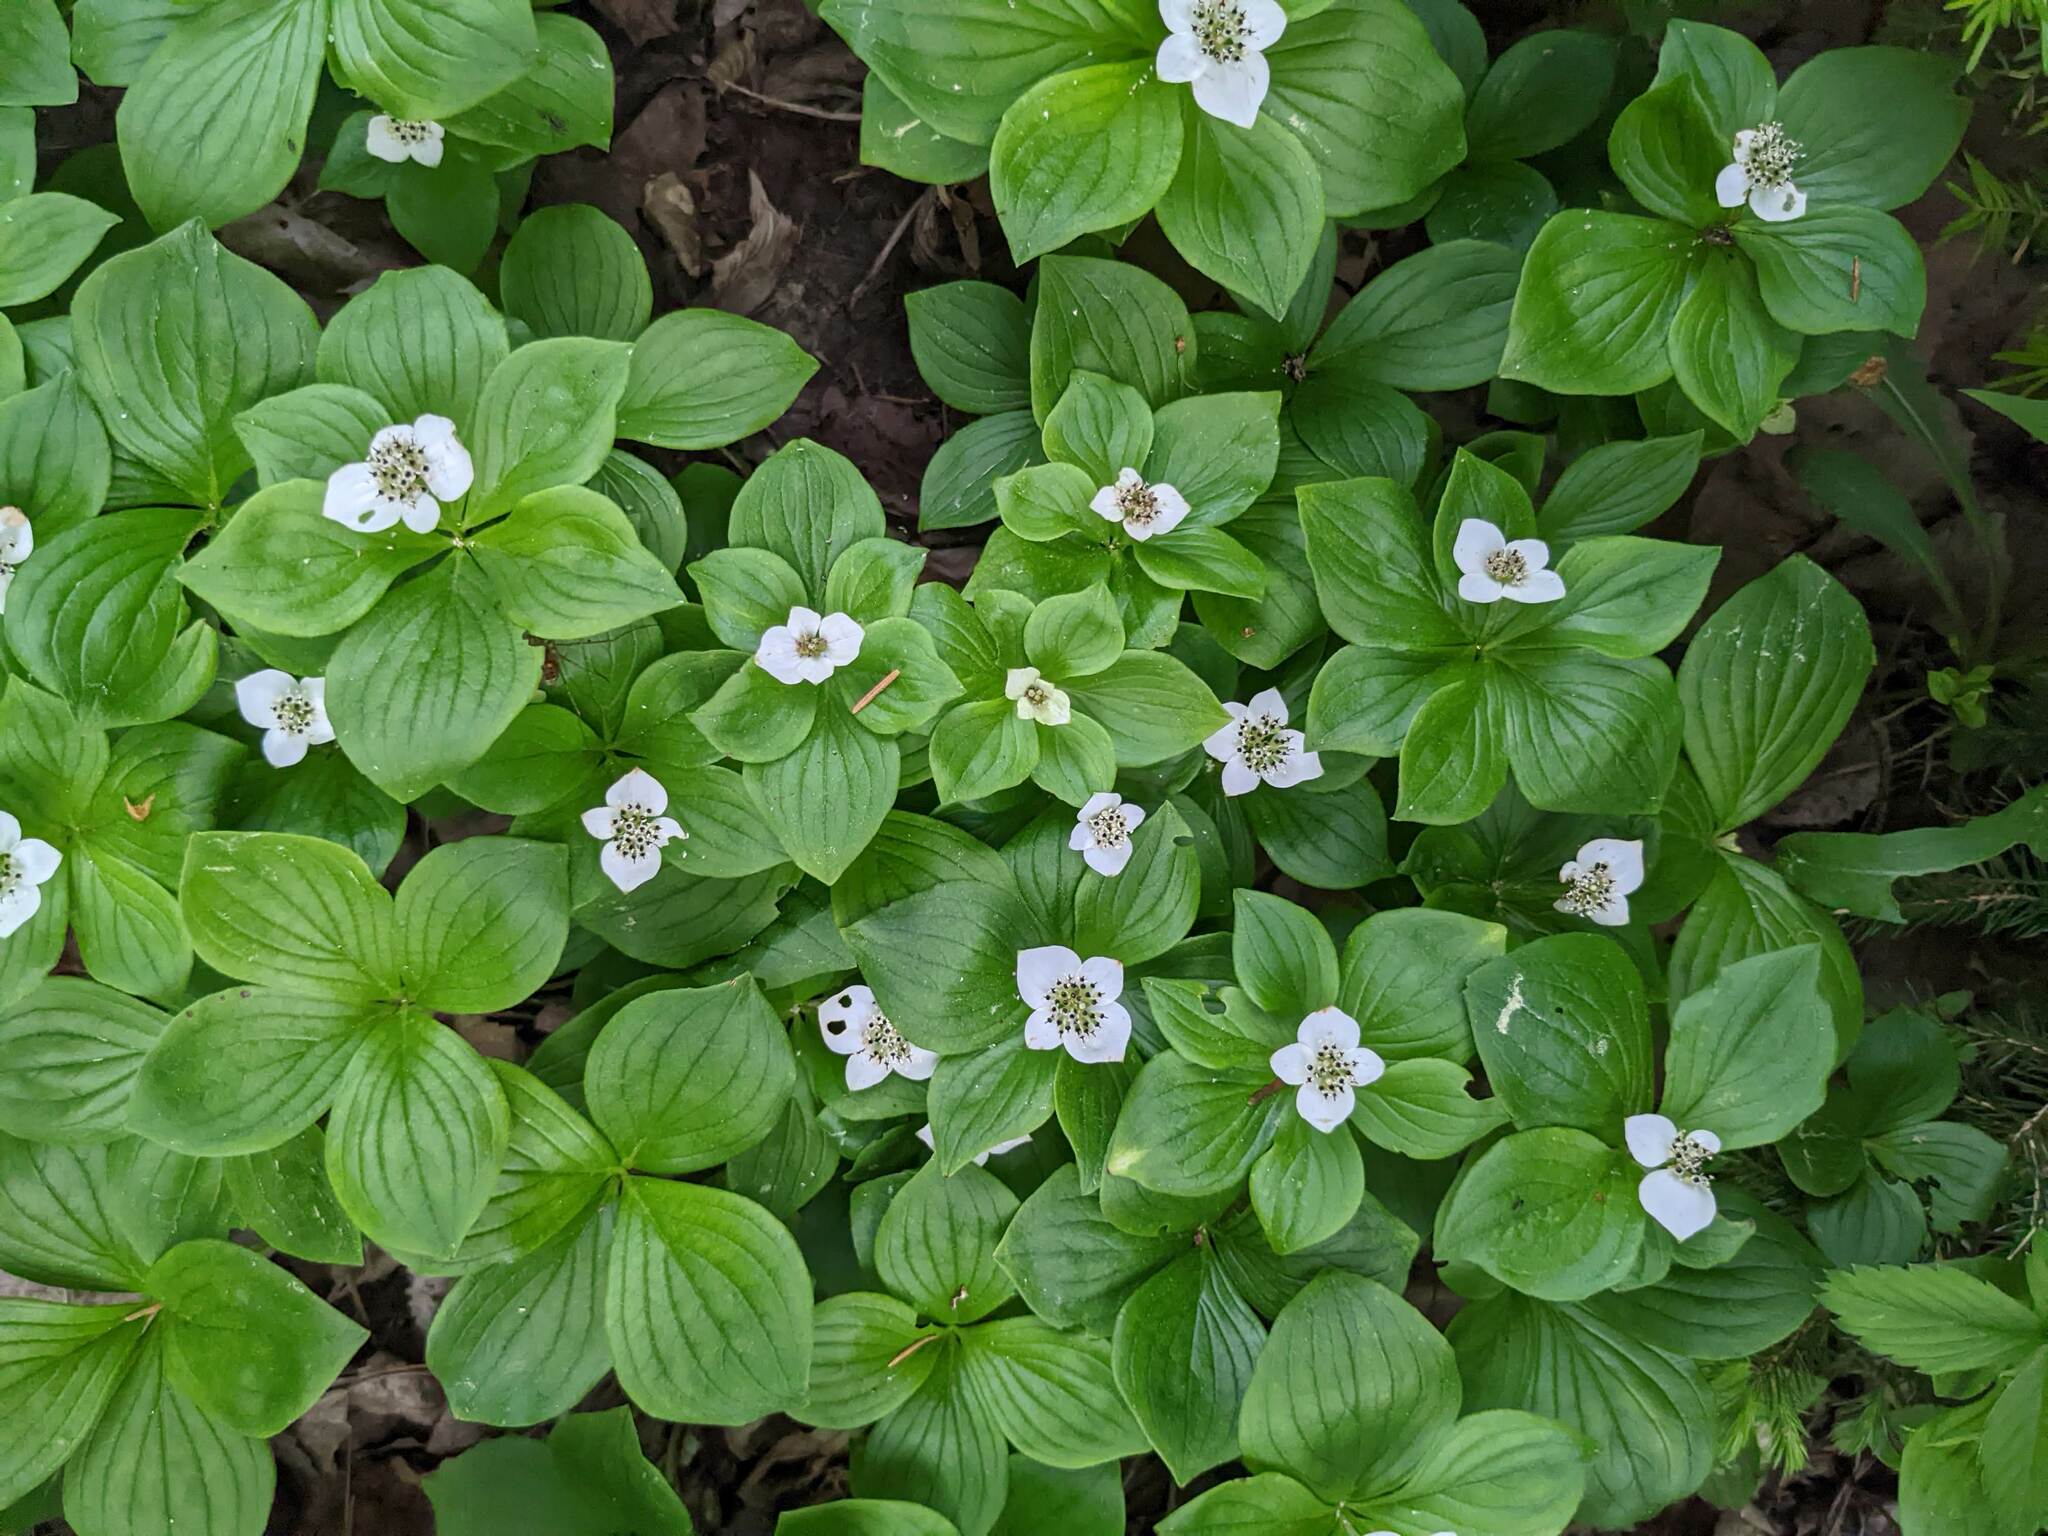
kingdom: Plantae
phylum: Tracheophyta
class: Magnoliopsida
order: Cornales
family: Cornaceae
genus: Cornus
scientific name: Cornus canadensis
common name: Creeping dogwood
